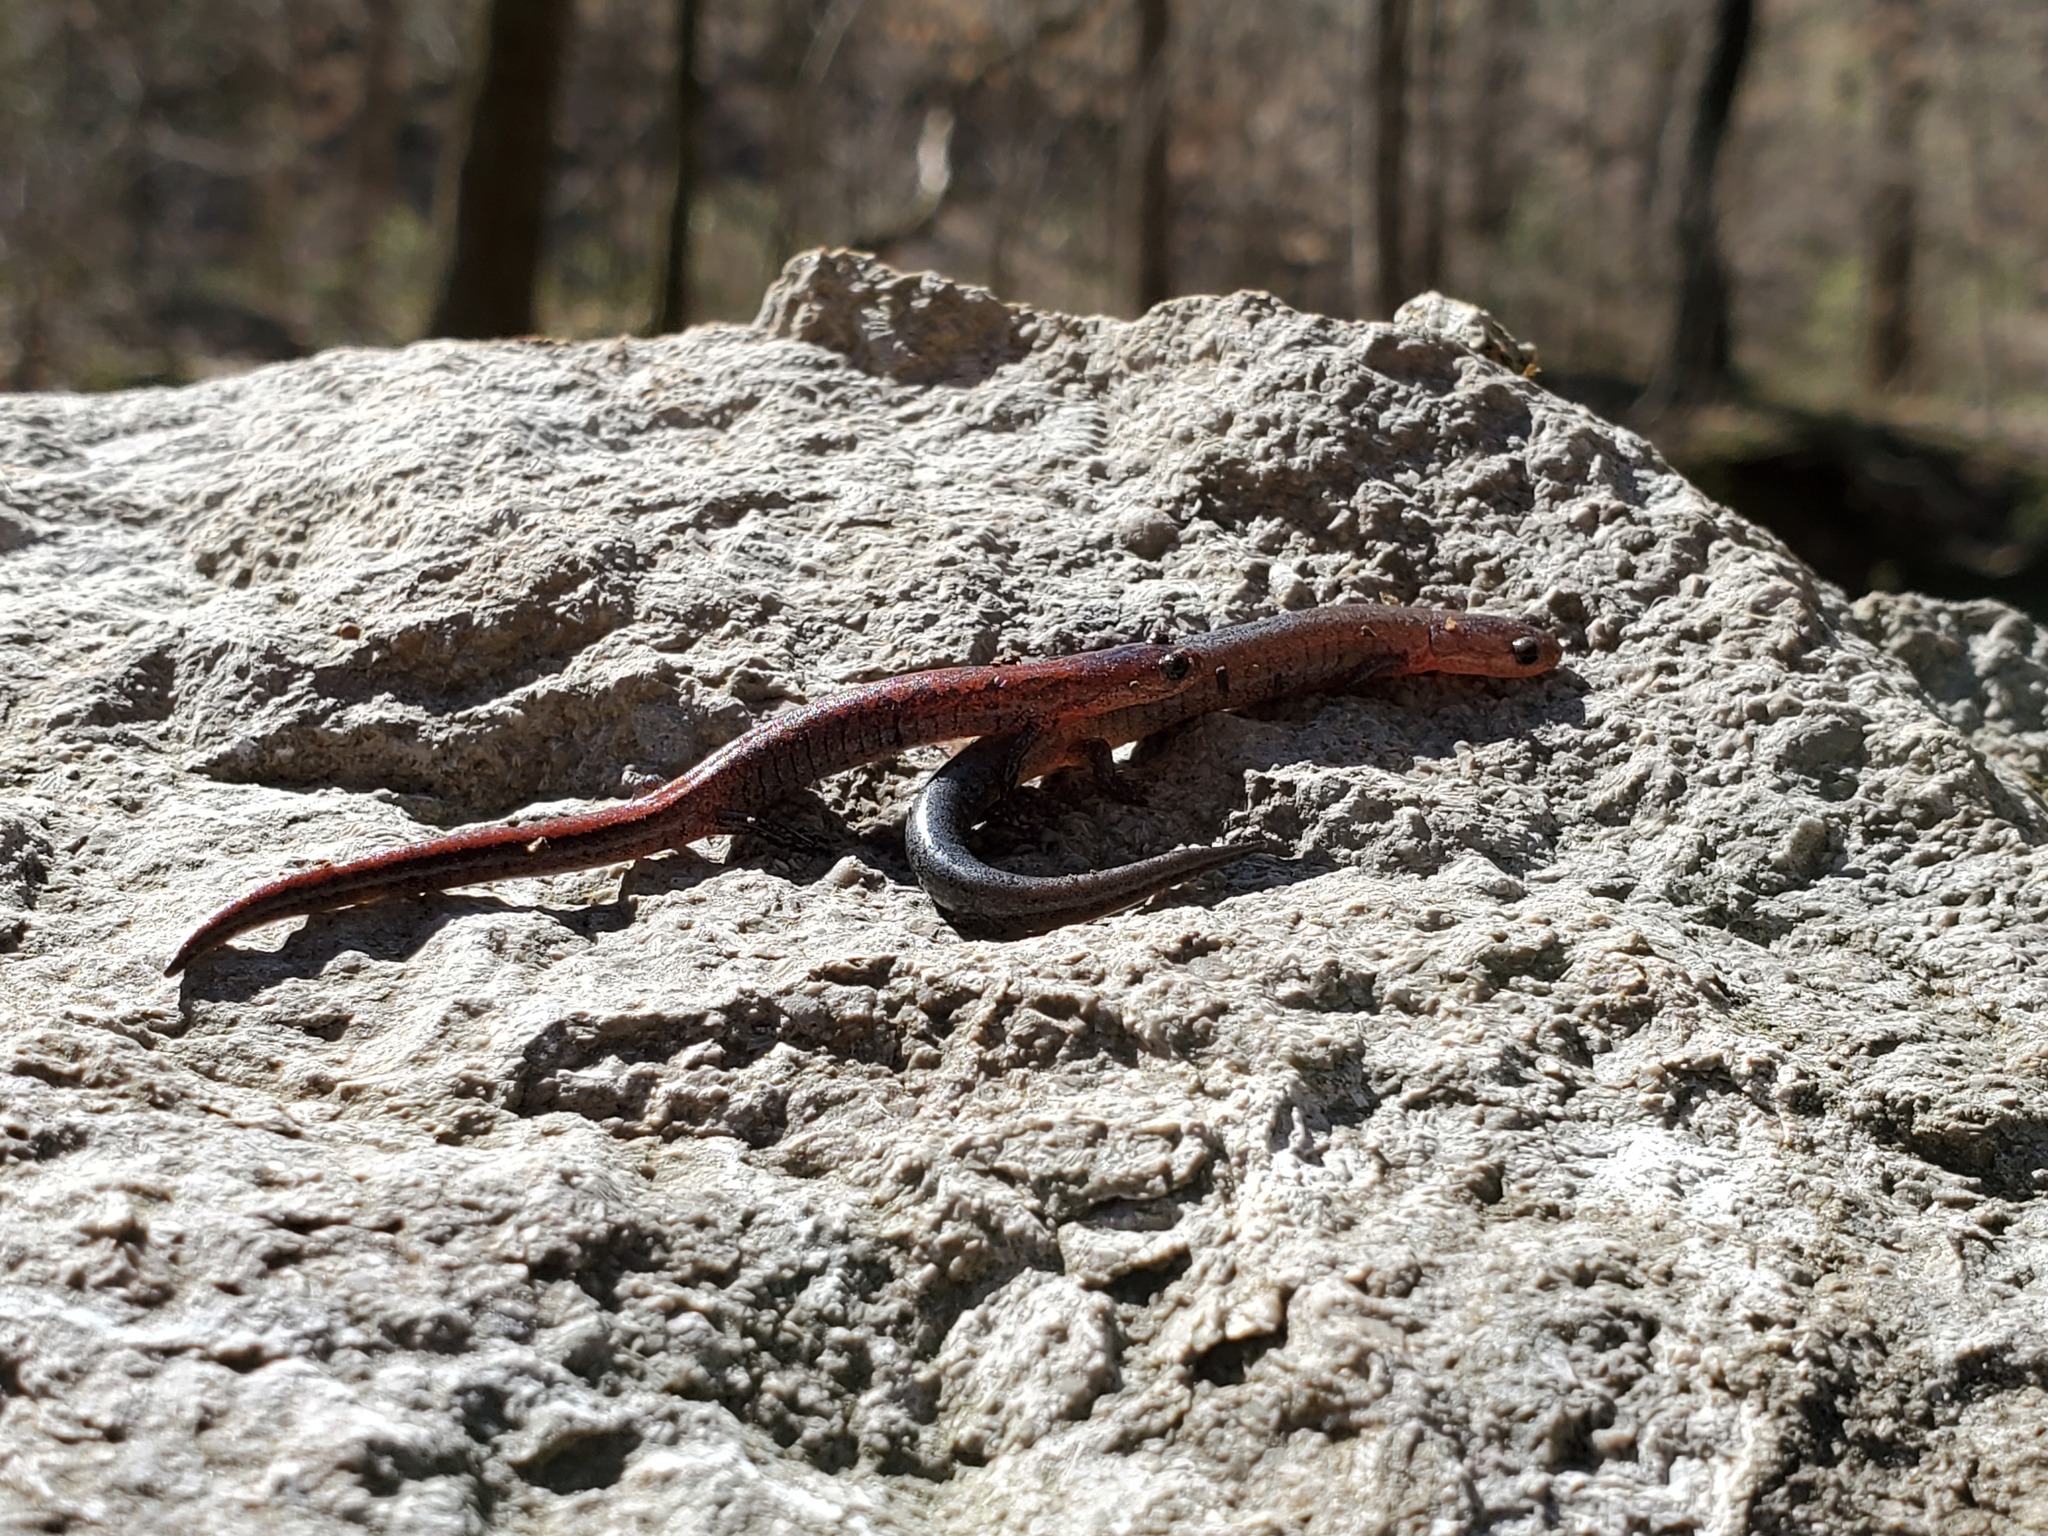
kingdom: Animalia
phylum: Chordata
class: Amphibia
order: Caudata
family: Plethodontidae
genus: Plethodon
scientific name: Plethodon dorsalis
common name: Northern zigzag salamander
